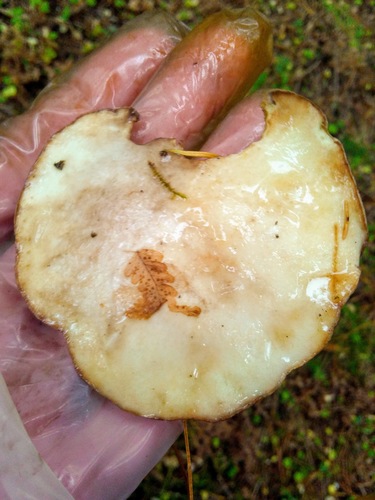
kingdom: Fungi
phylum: Basidiomycota
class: Agaricomycetes
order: Boletales
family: Suillaceae
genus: Suillus
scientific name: Suillus placidus
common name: Slippery white bolete
